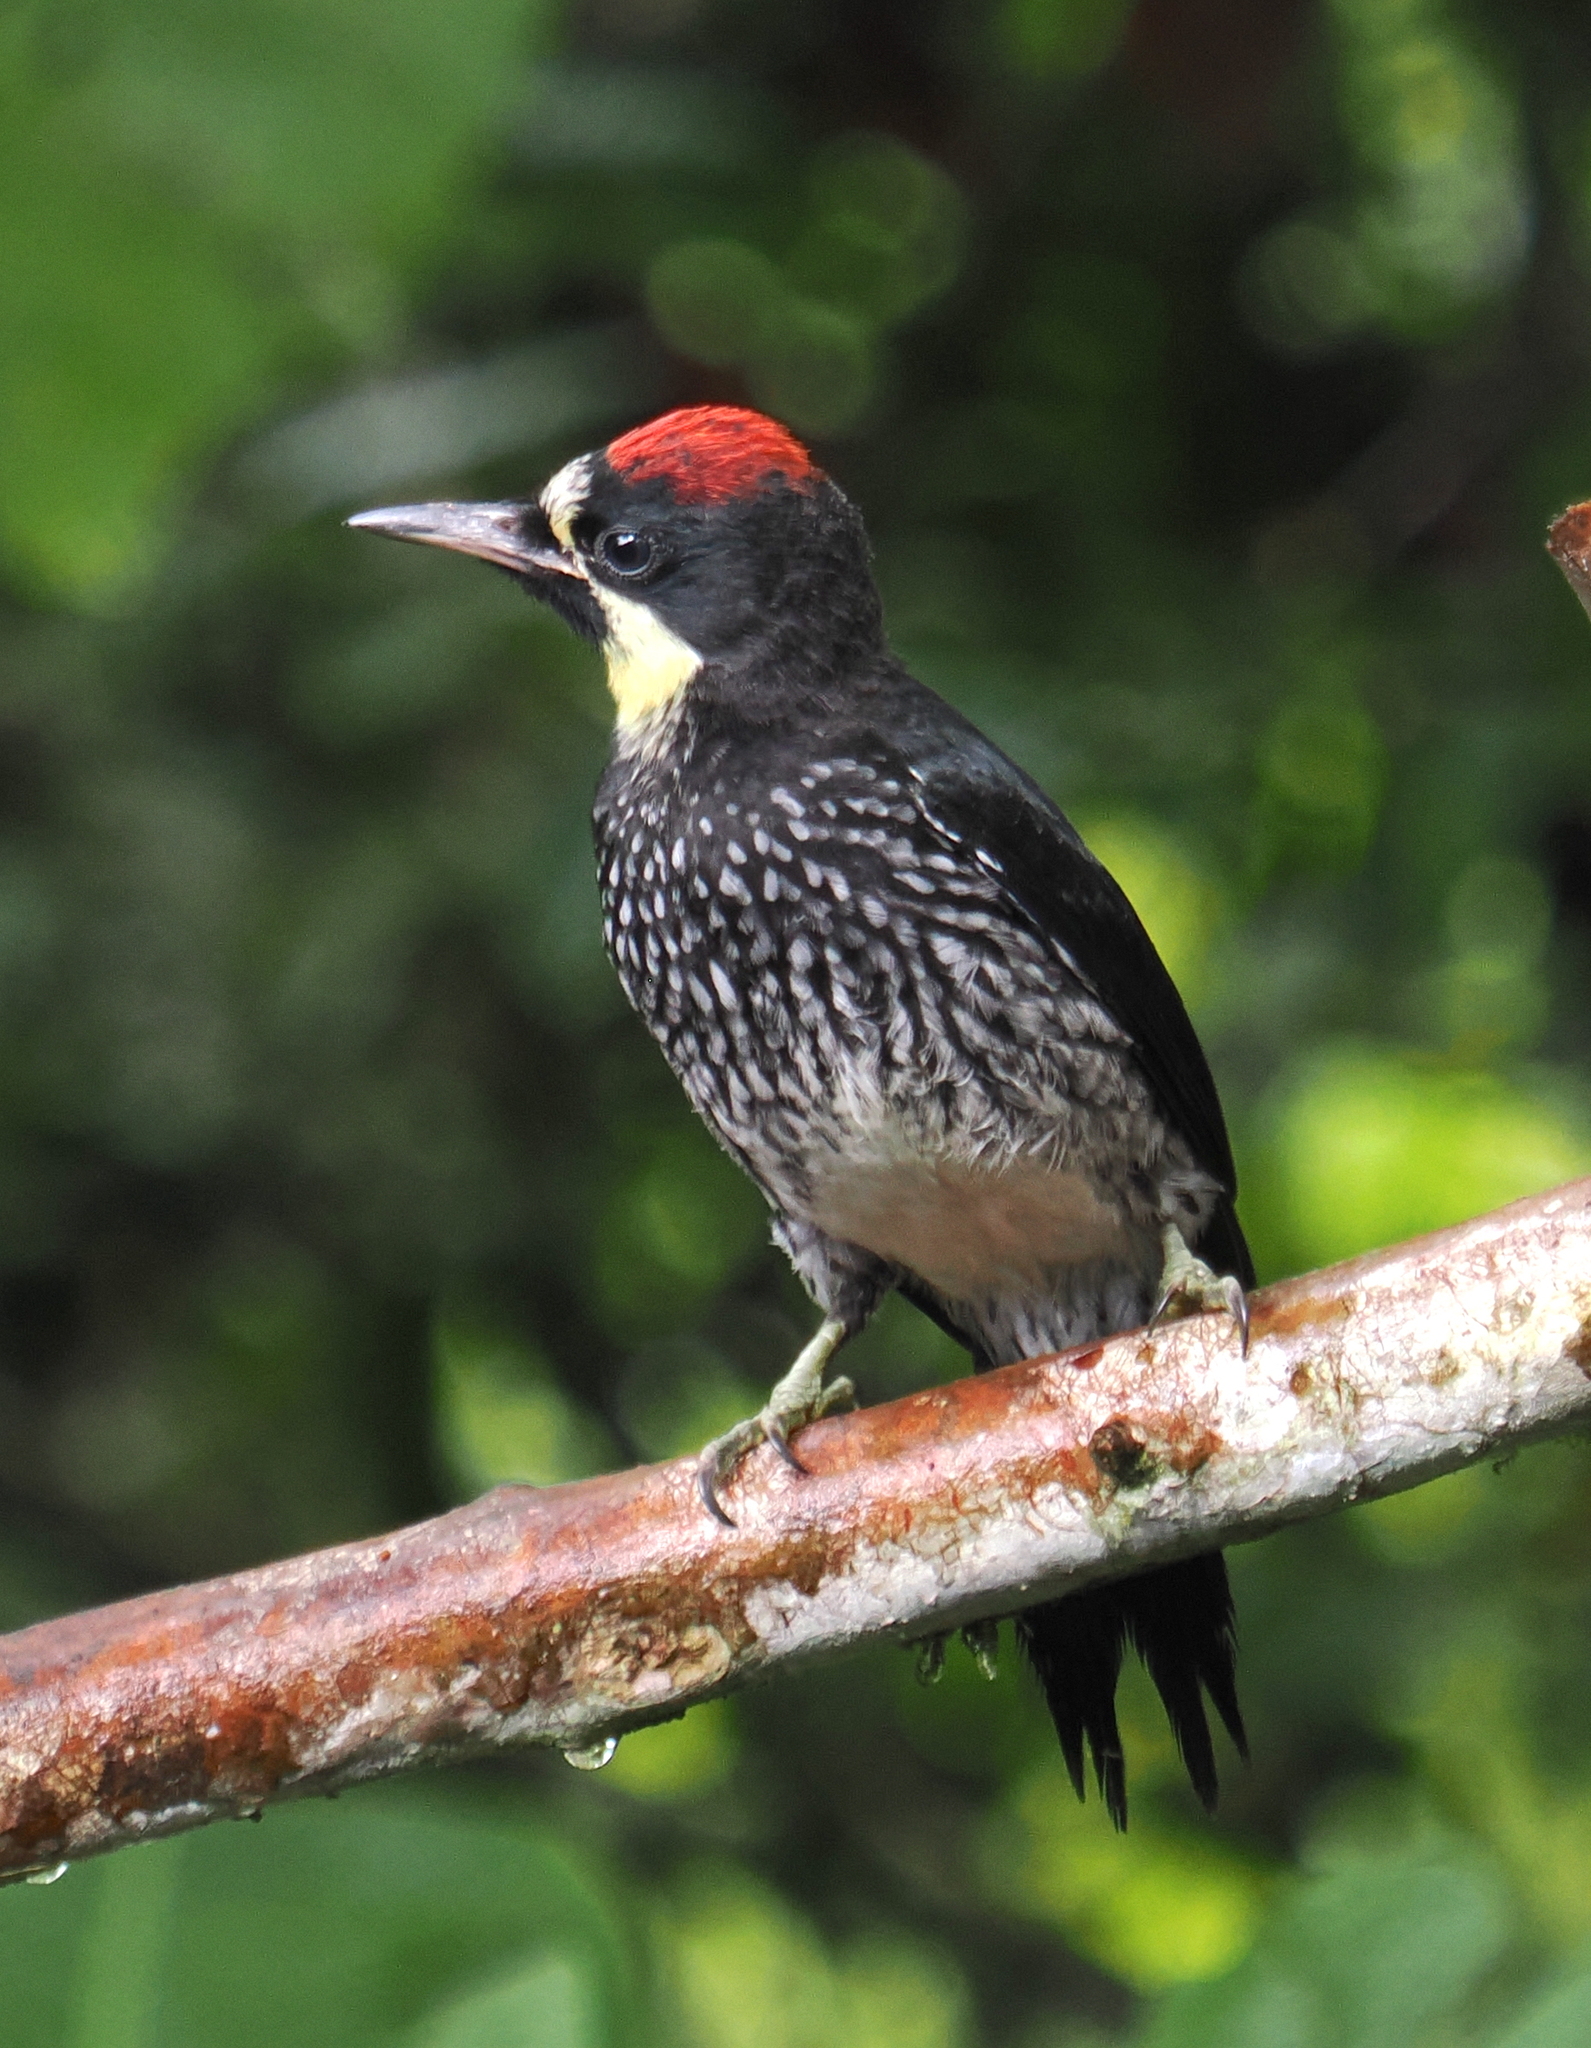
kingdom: Animalia
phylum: Chordata
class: Aves
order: Piciformes
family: Picidae
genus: Melanerpes
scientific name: Melanerpes formicivorus
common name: Acorn woodpecker
